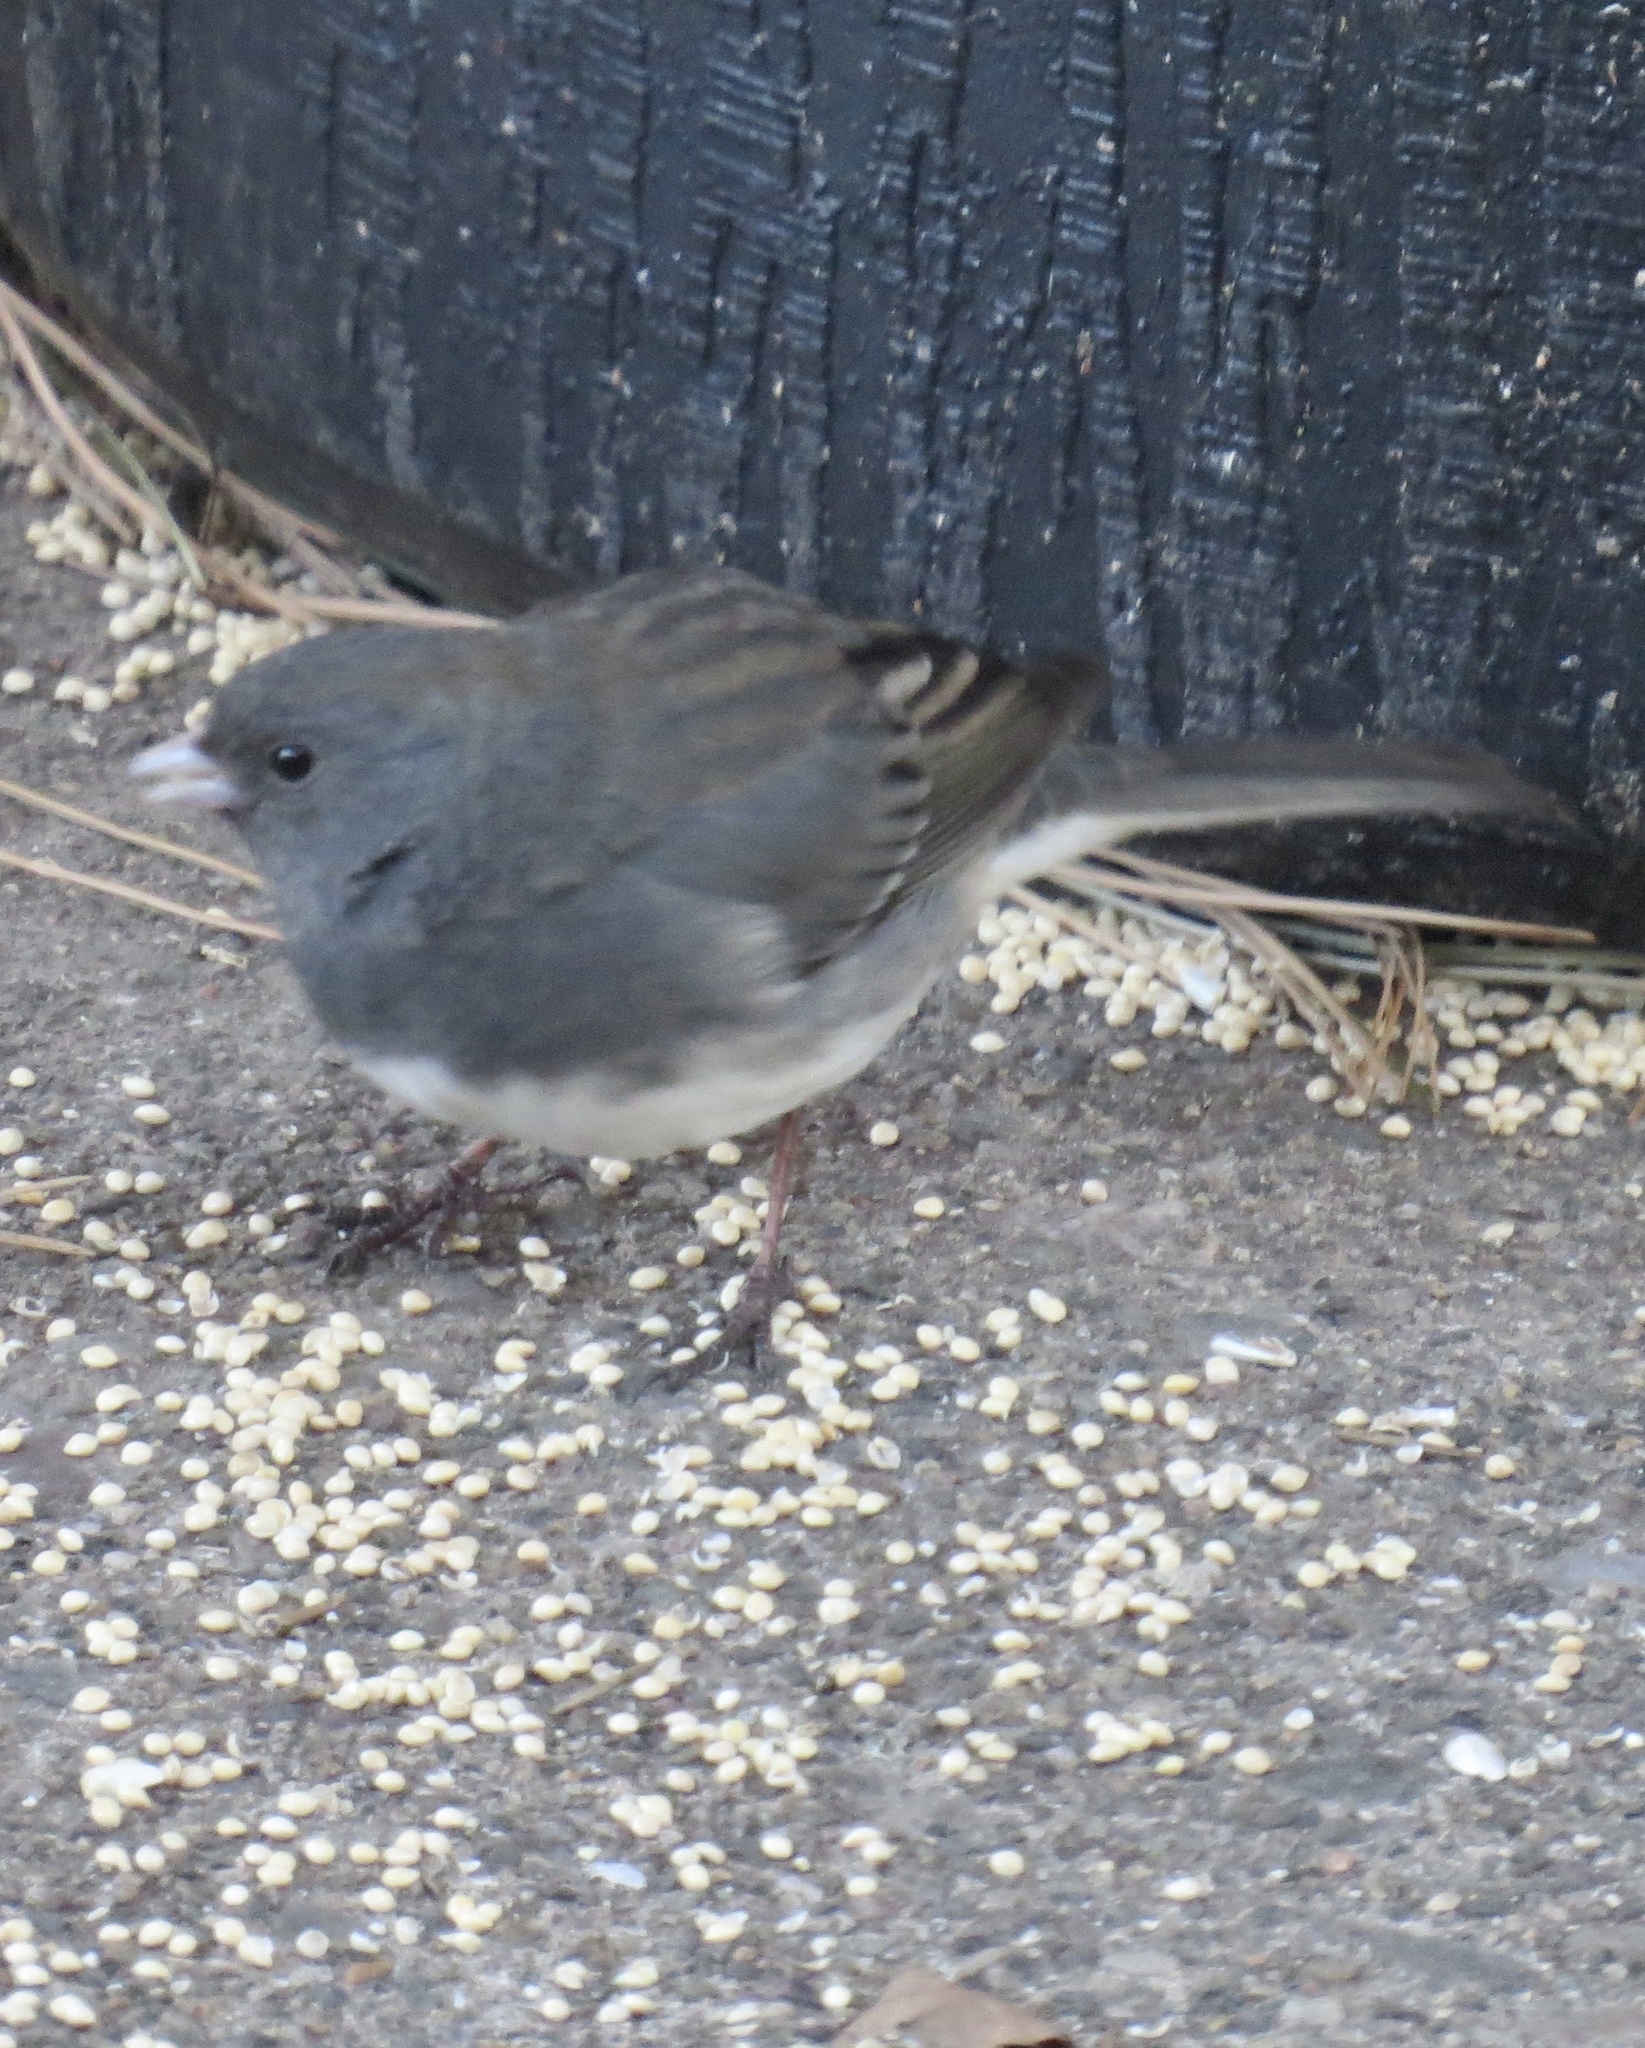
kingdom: Animalia
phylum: Chordata
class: Aves
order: Passeriformes
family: Passerellidae
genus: Junco
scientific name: Junco hyemalis
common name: Dark-eyed junco
